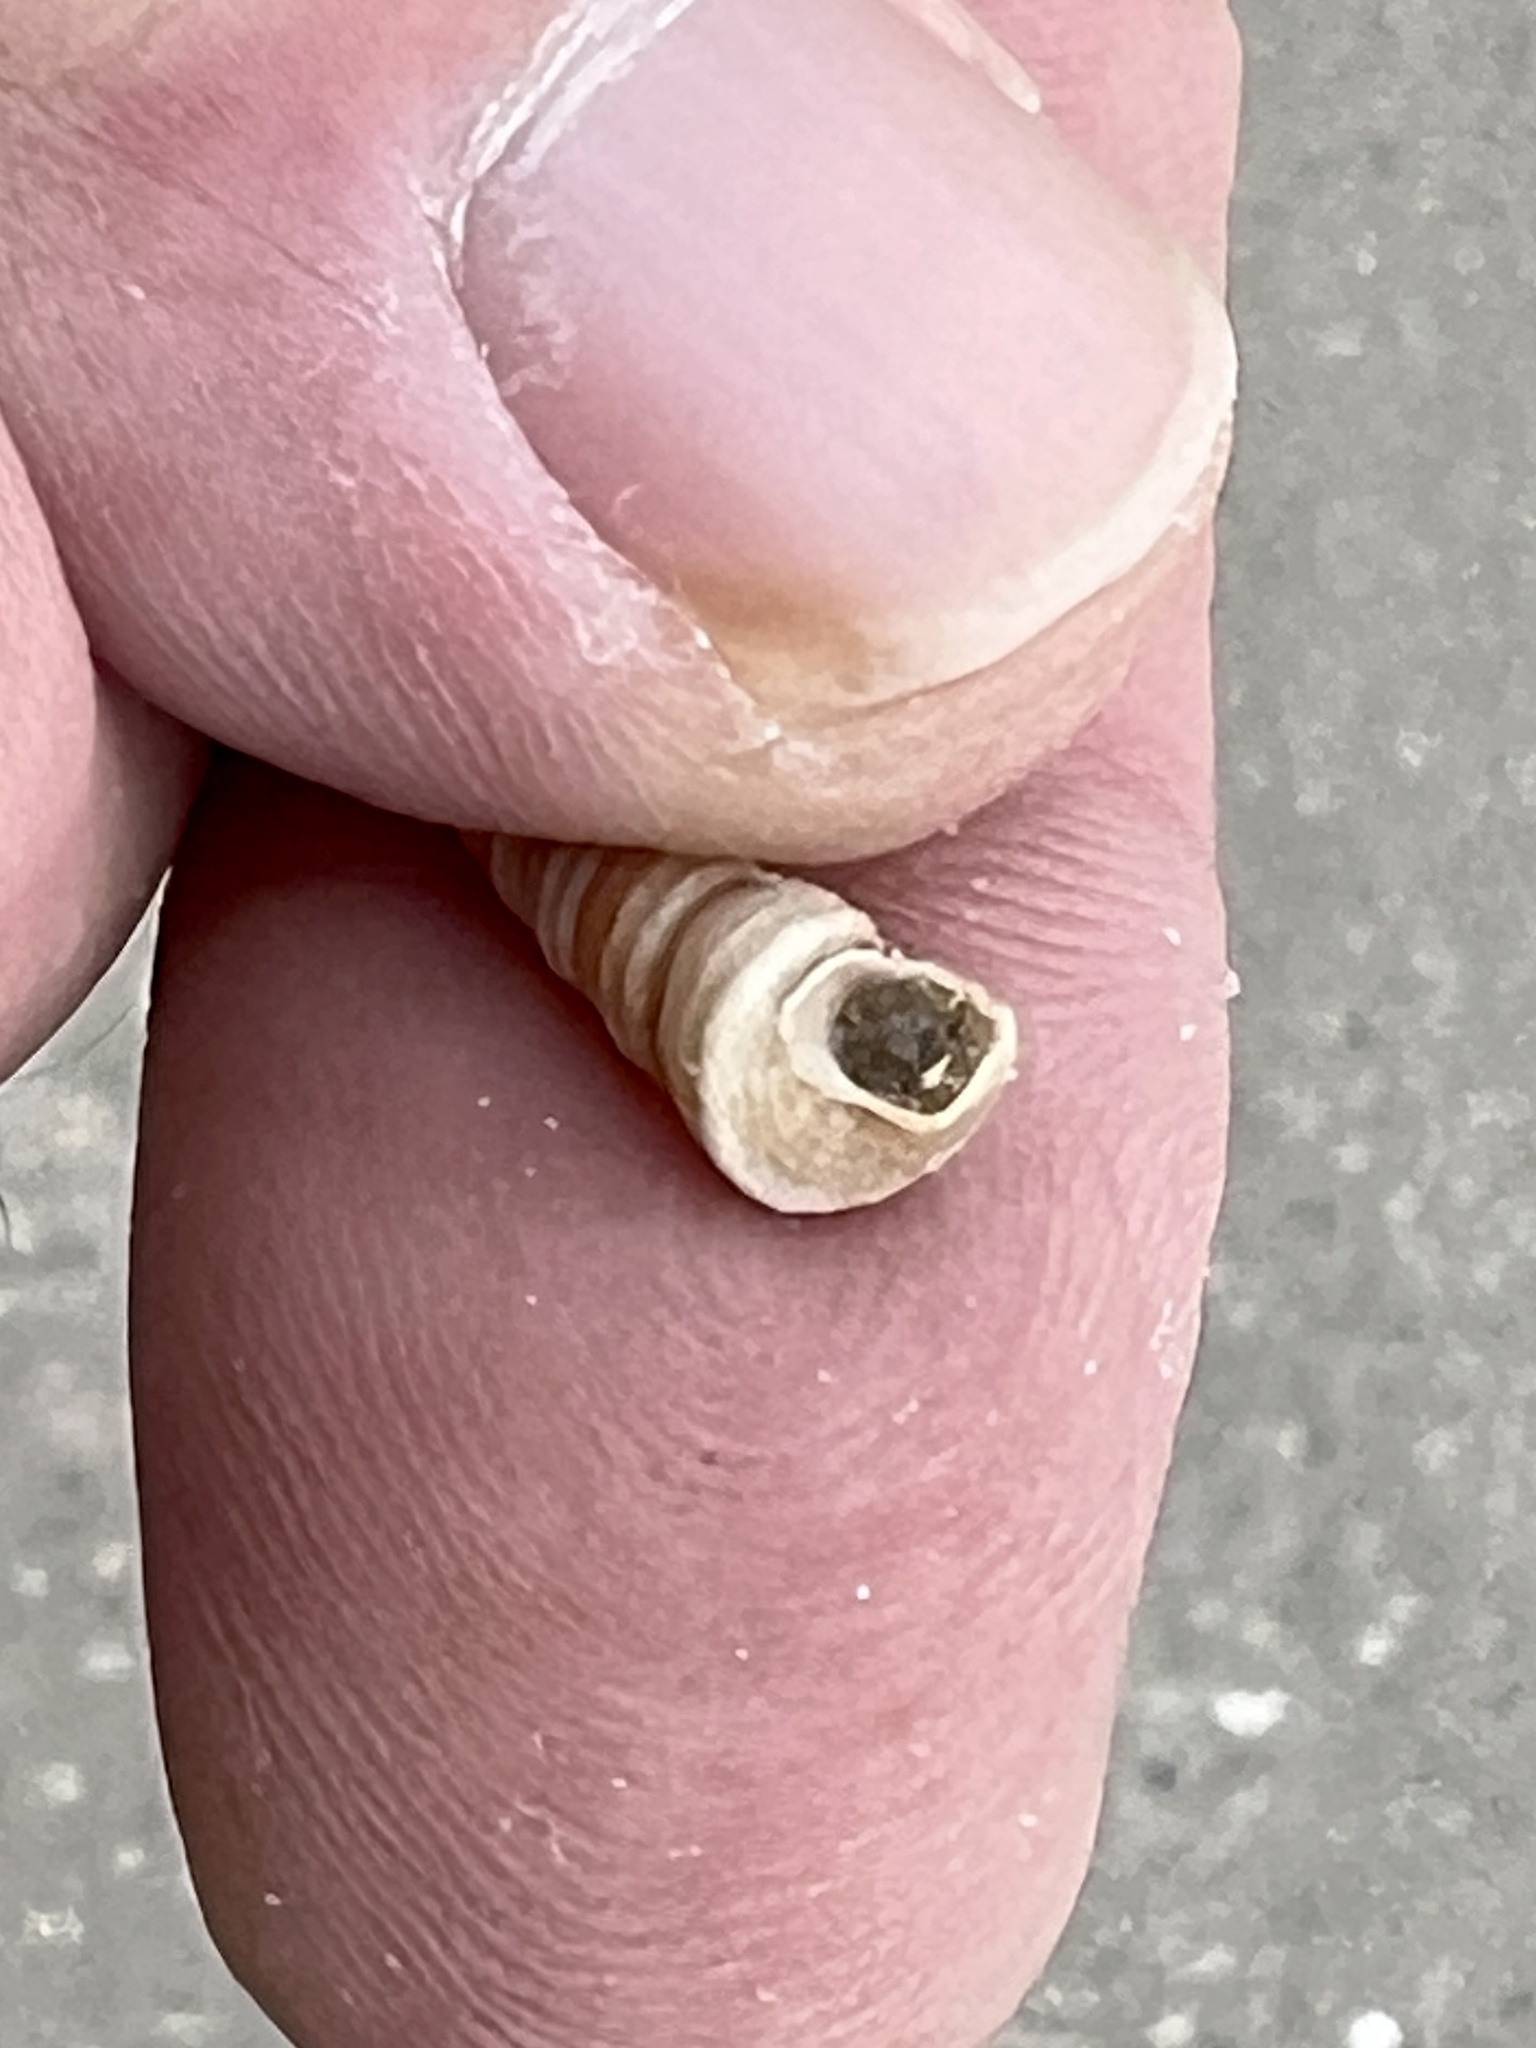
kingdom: Animalia
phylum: Mollusca
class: Gastropoda
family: Turritellidae
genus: Vermicularia
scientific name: Vermicularia fargoi
